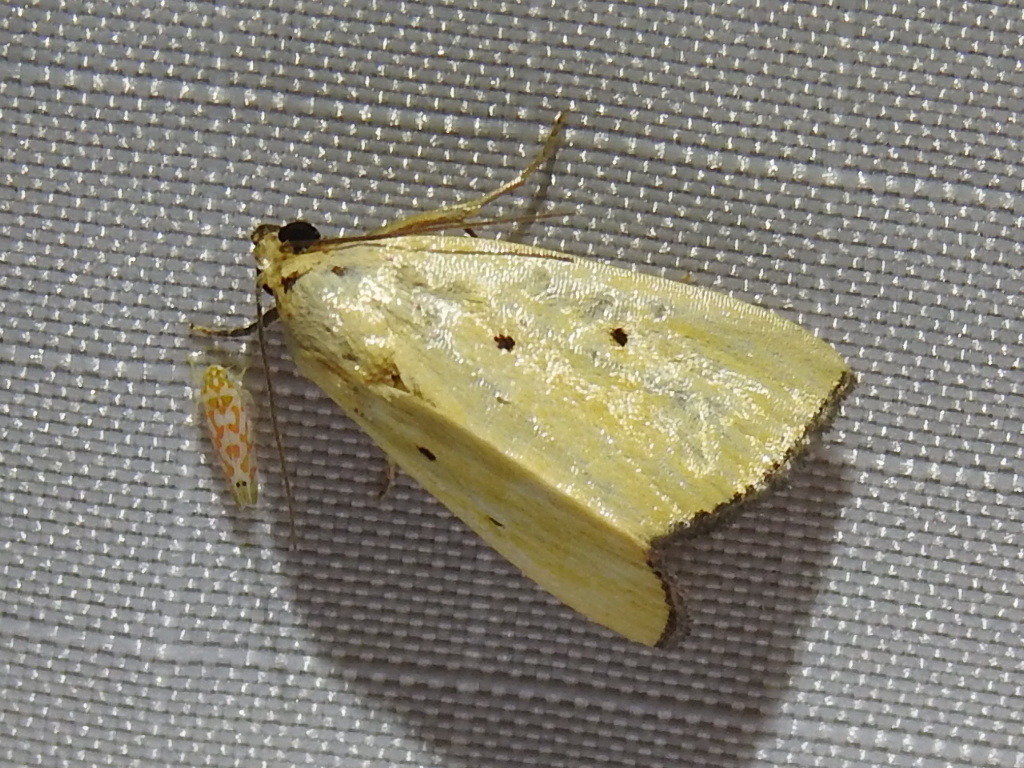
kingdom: Animalia
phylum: Arthropoda
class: Insecta
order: Lepidoptera
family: Noctuidae
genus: Marimatha
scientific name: Marimatha nigrofimbria
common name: Black-bordered lemon moth
